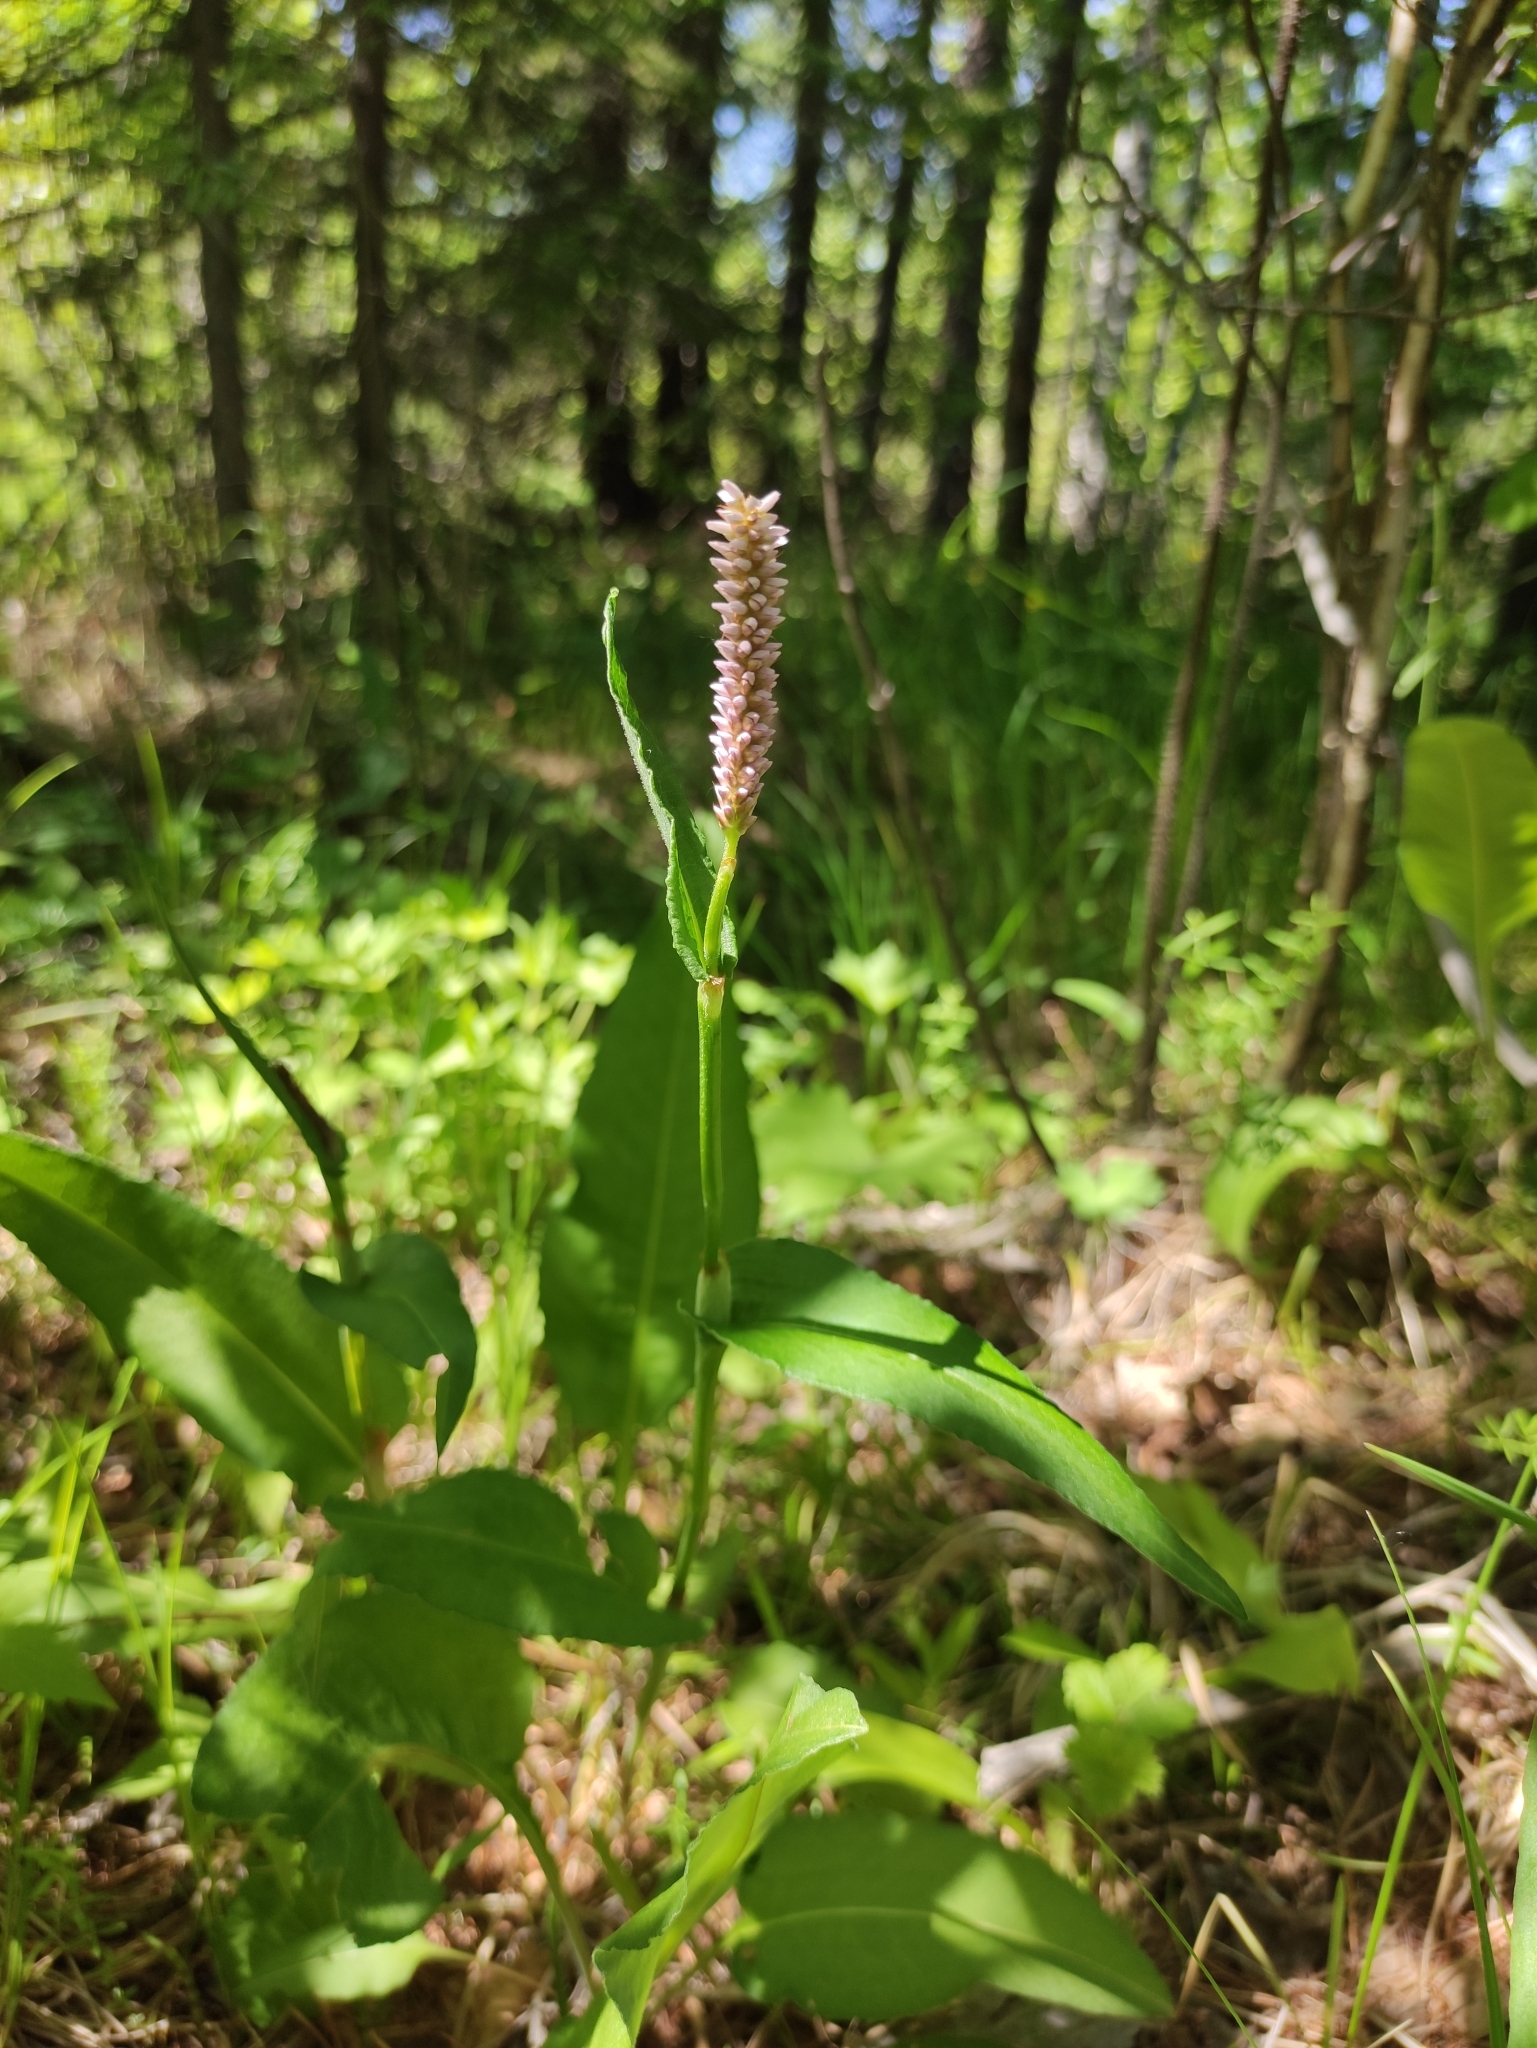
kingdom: Plantae
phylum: Tracheophyta
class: Magnoliopsida
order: Caryophyllales
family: Polygonaceae
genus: Bistorta
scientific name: Bistorta officinalis
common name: Common bistort
